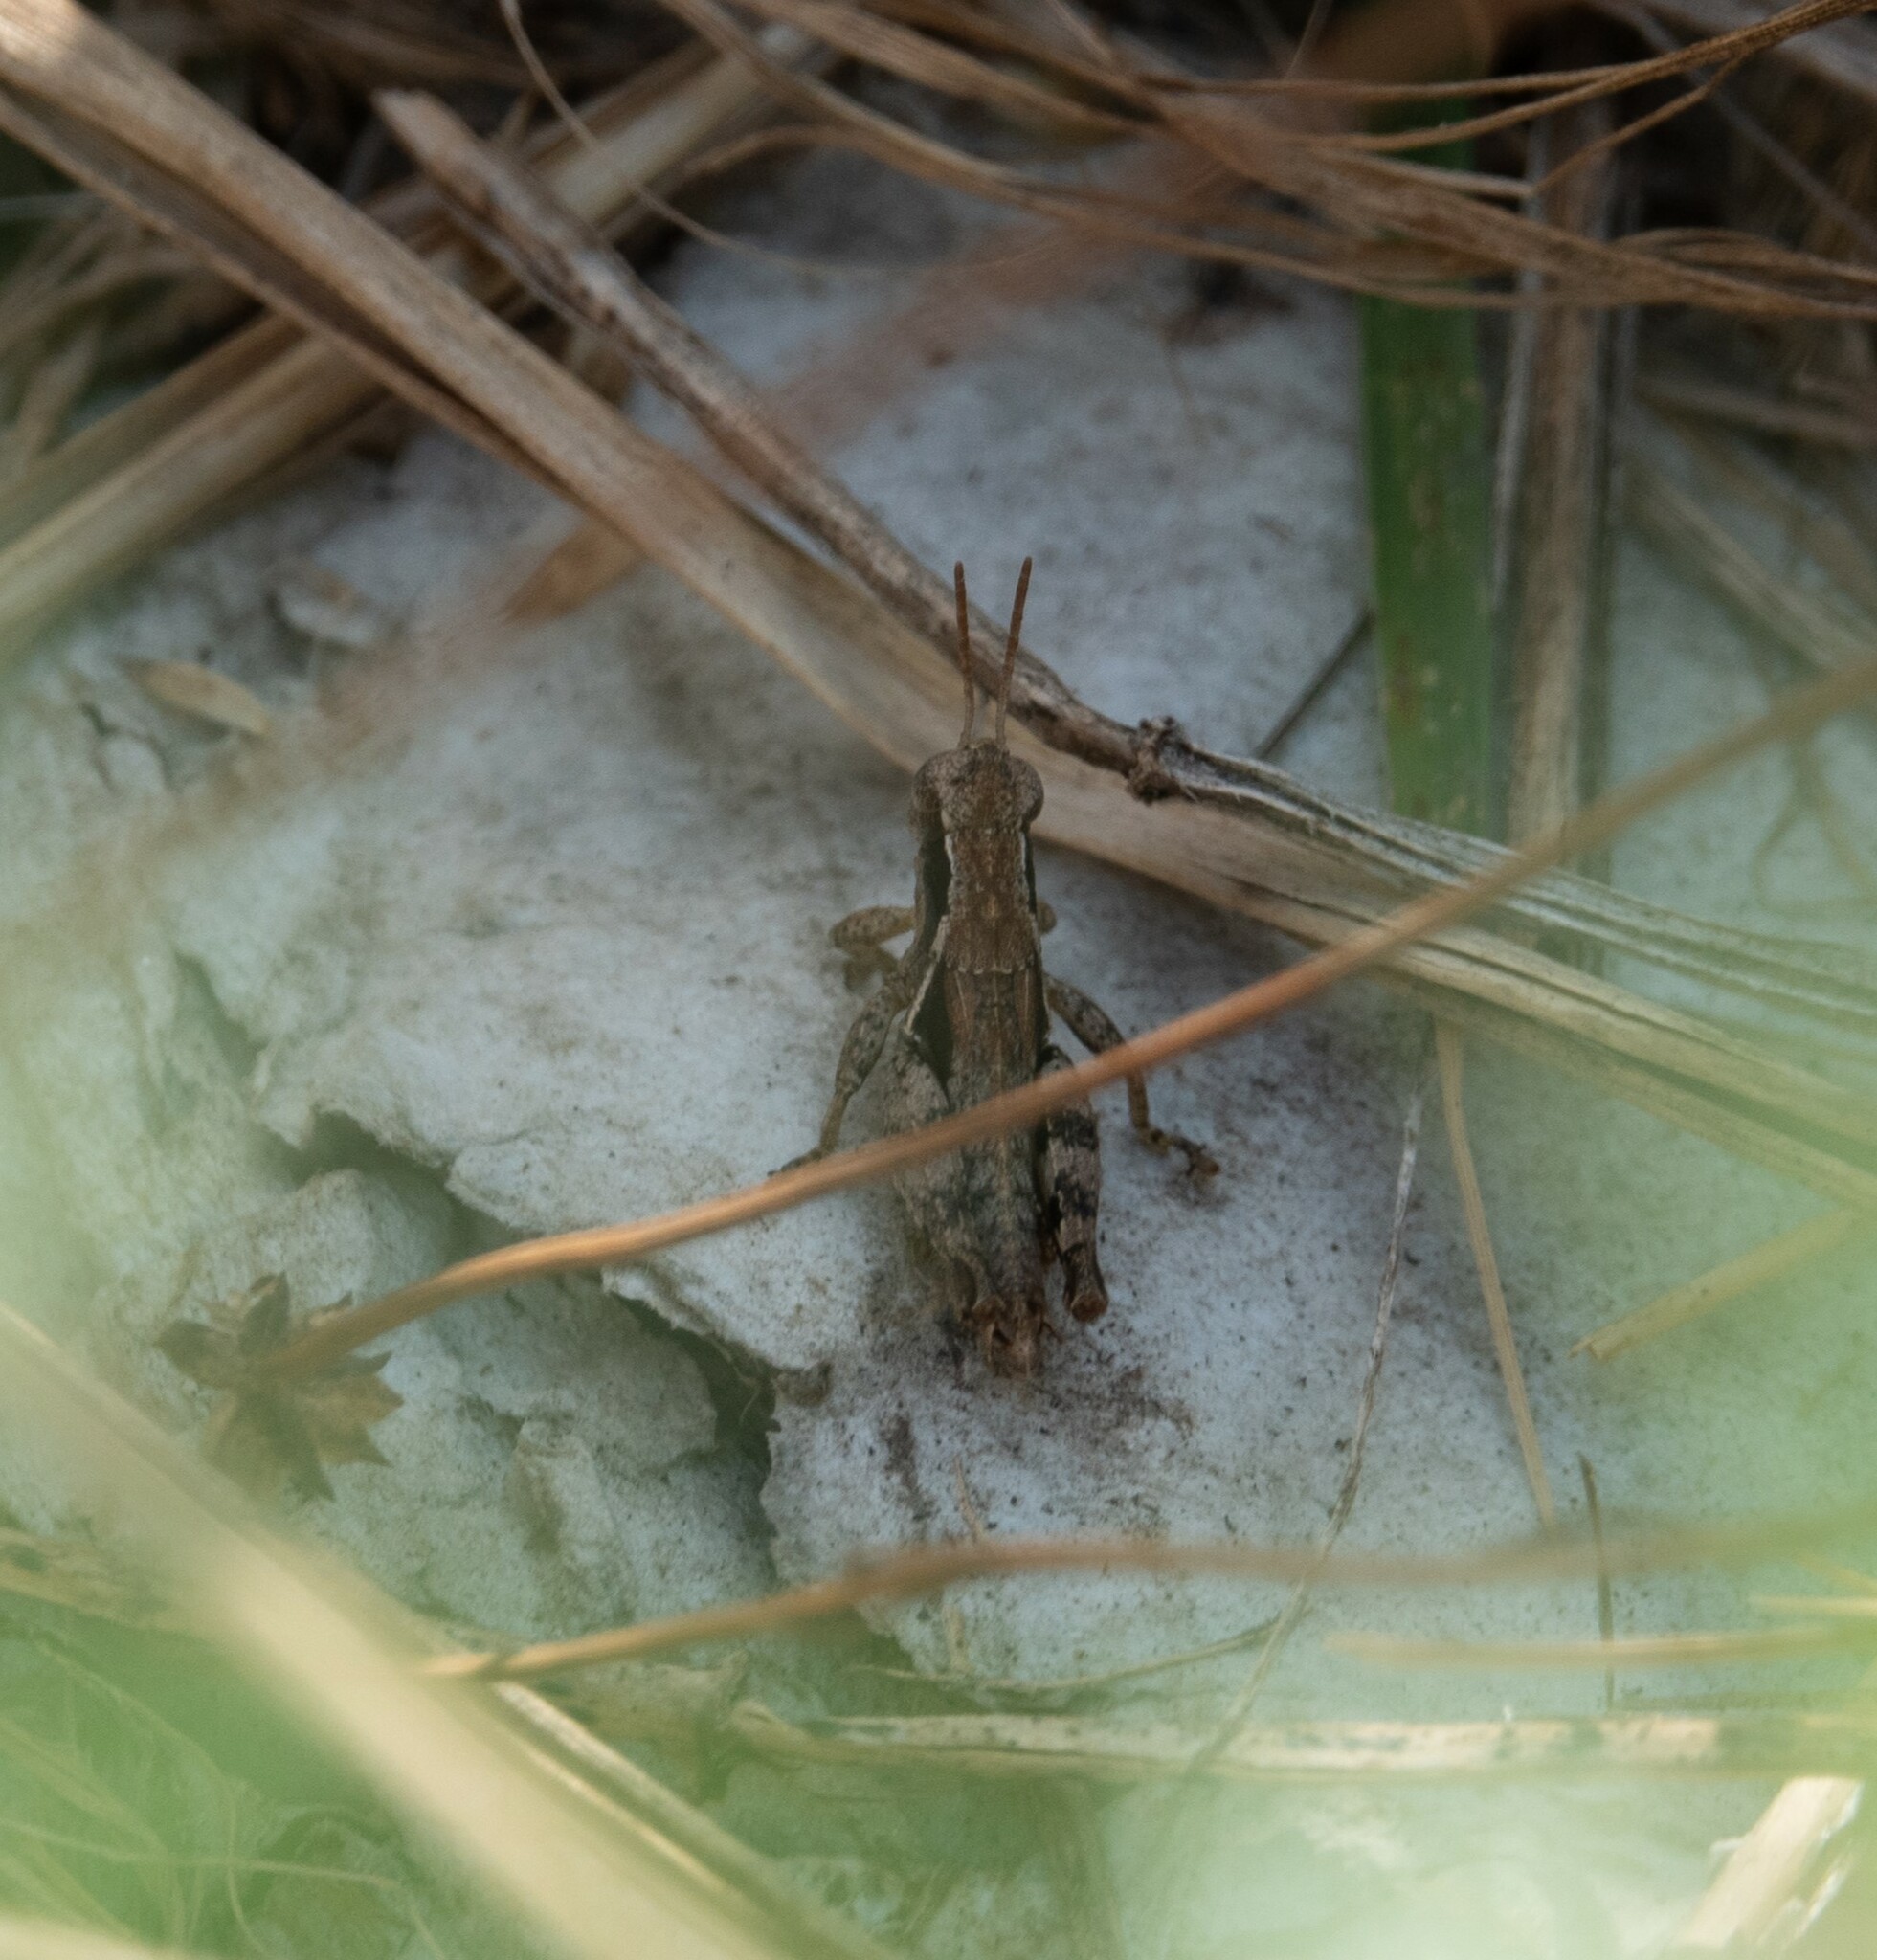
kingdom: Animalia
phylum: Arthropoda
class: Insecta
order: Orthoptera
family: Acrididae
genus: Pezotettix
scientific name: Pezotettix giornae
